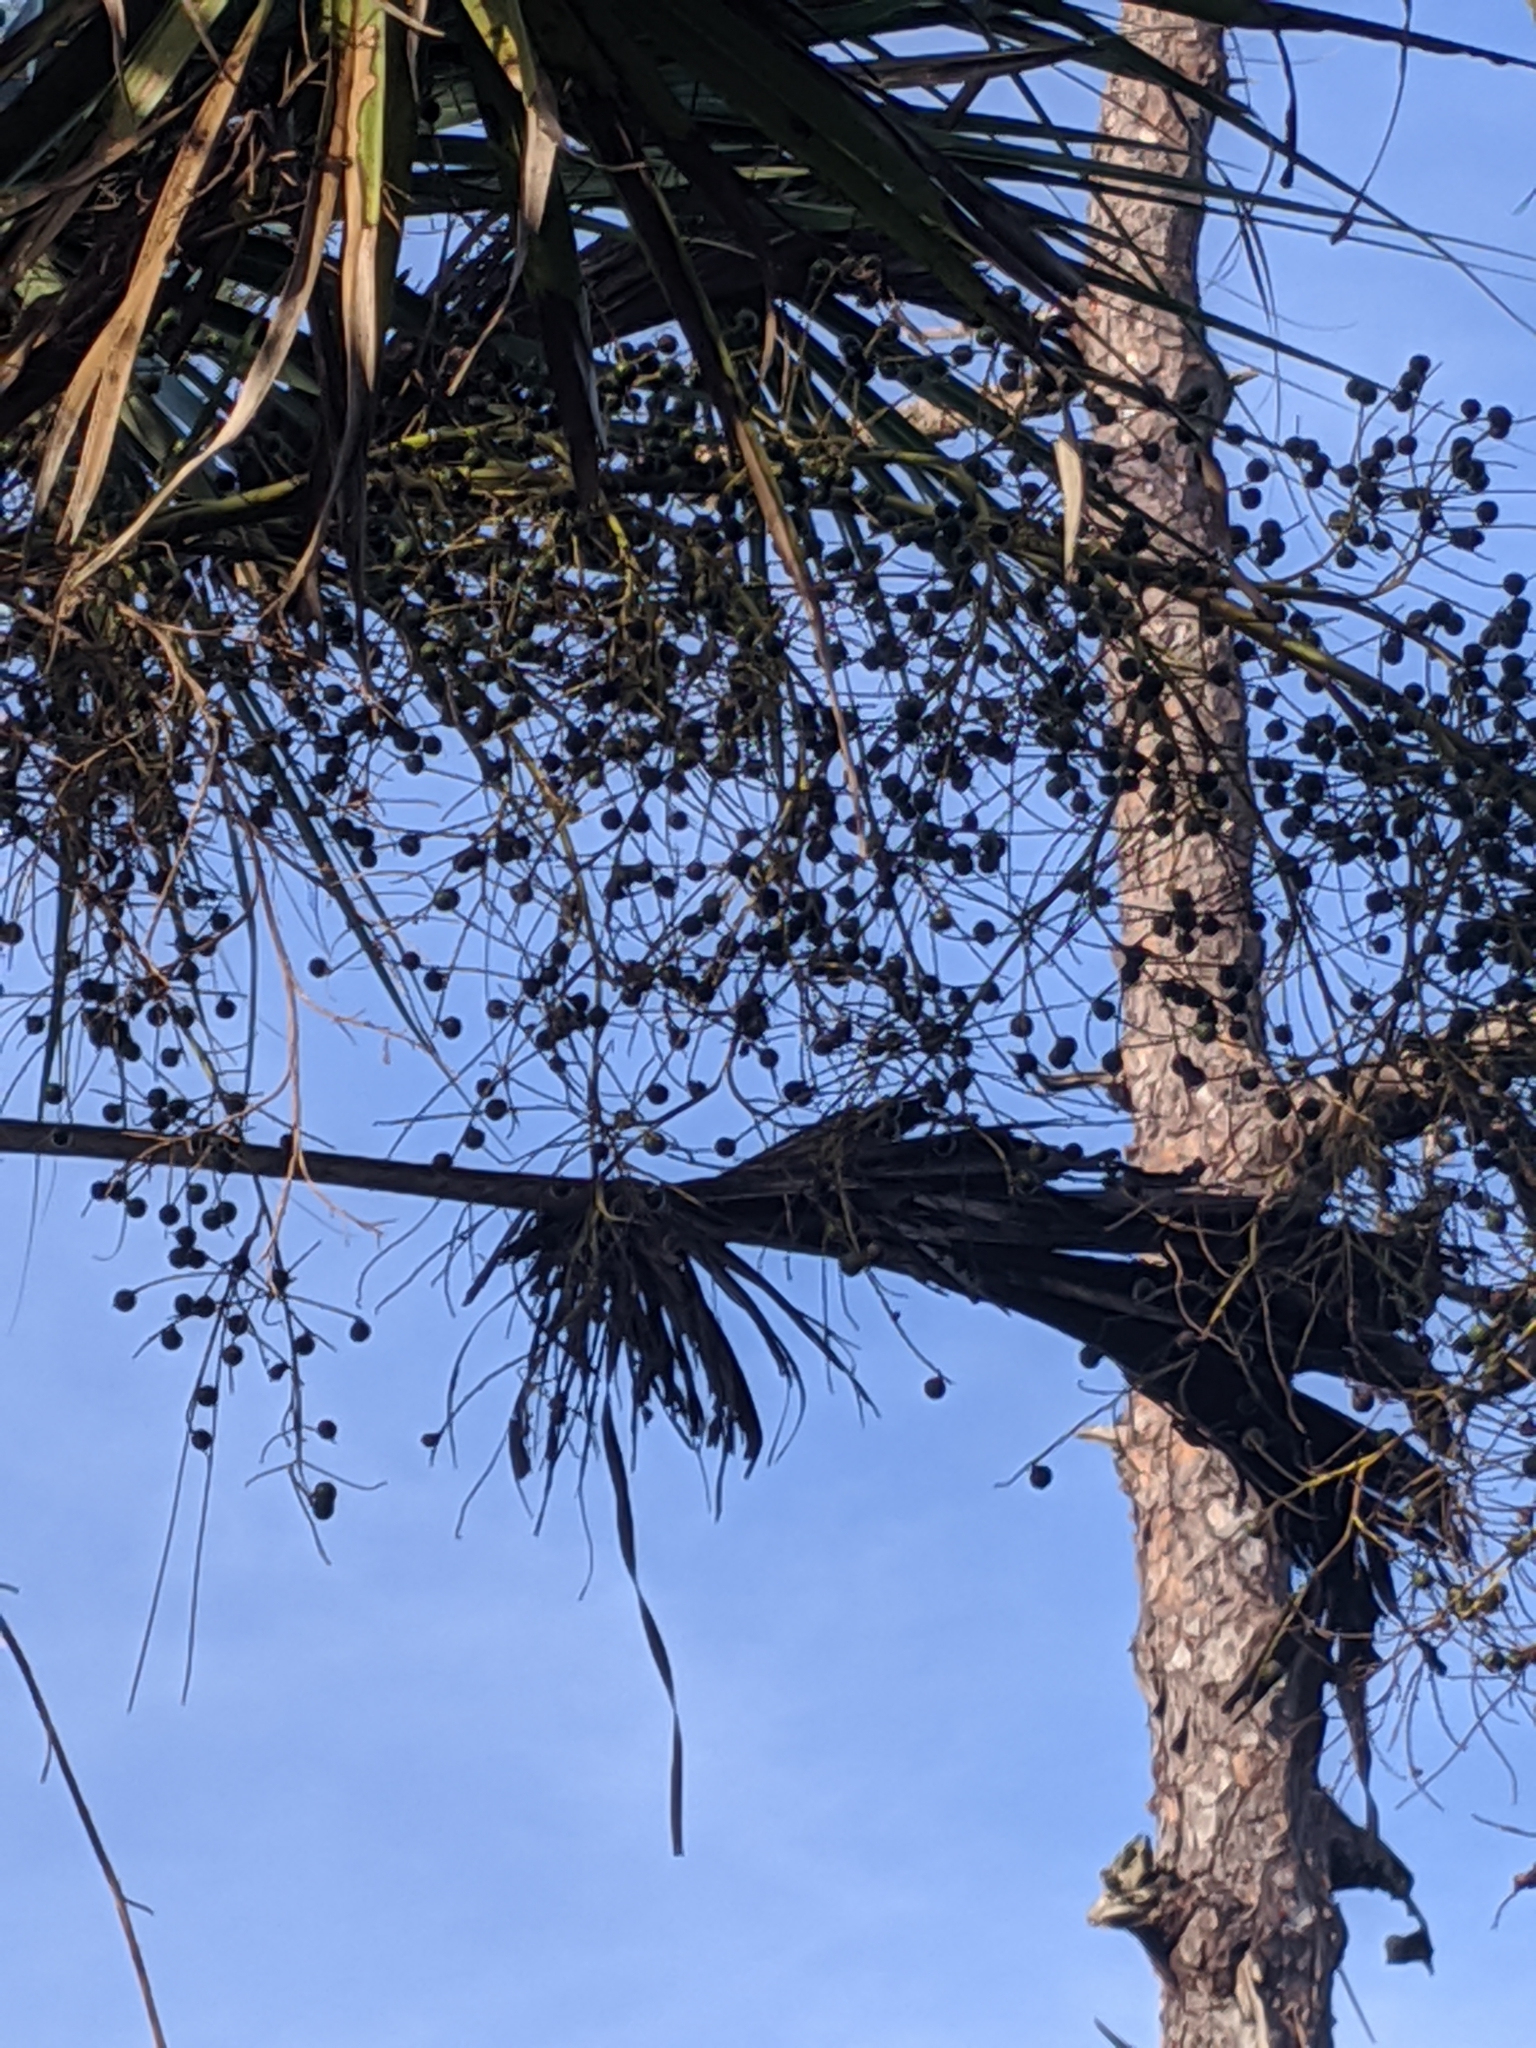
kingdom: Plantae
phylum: Tracheophyta
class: Liliopsida
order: Arecales
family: Arecaceae
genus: Sabal
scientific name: Sabal palmetto
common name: Blue palmetto
